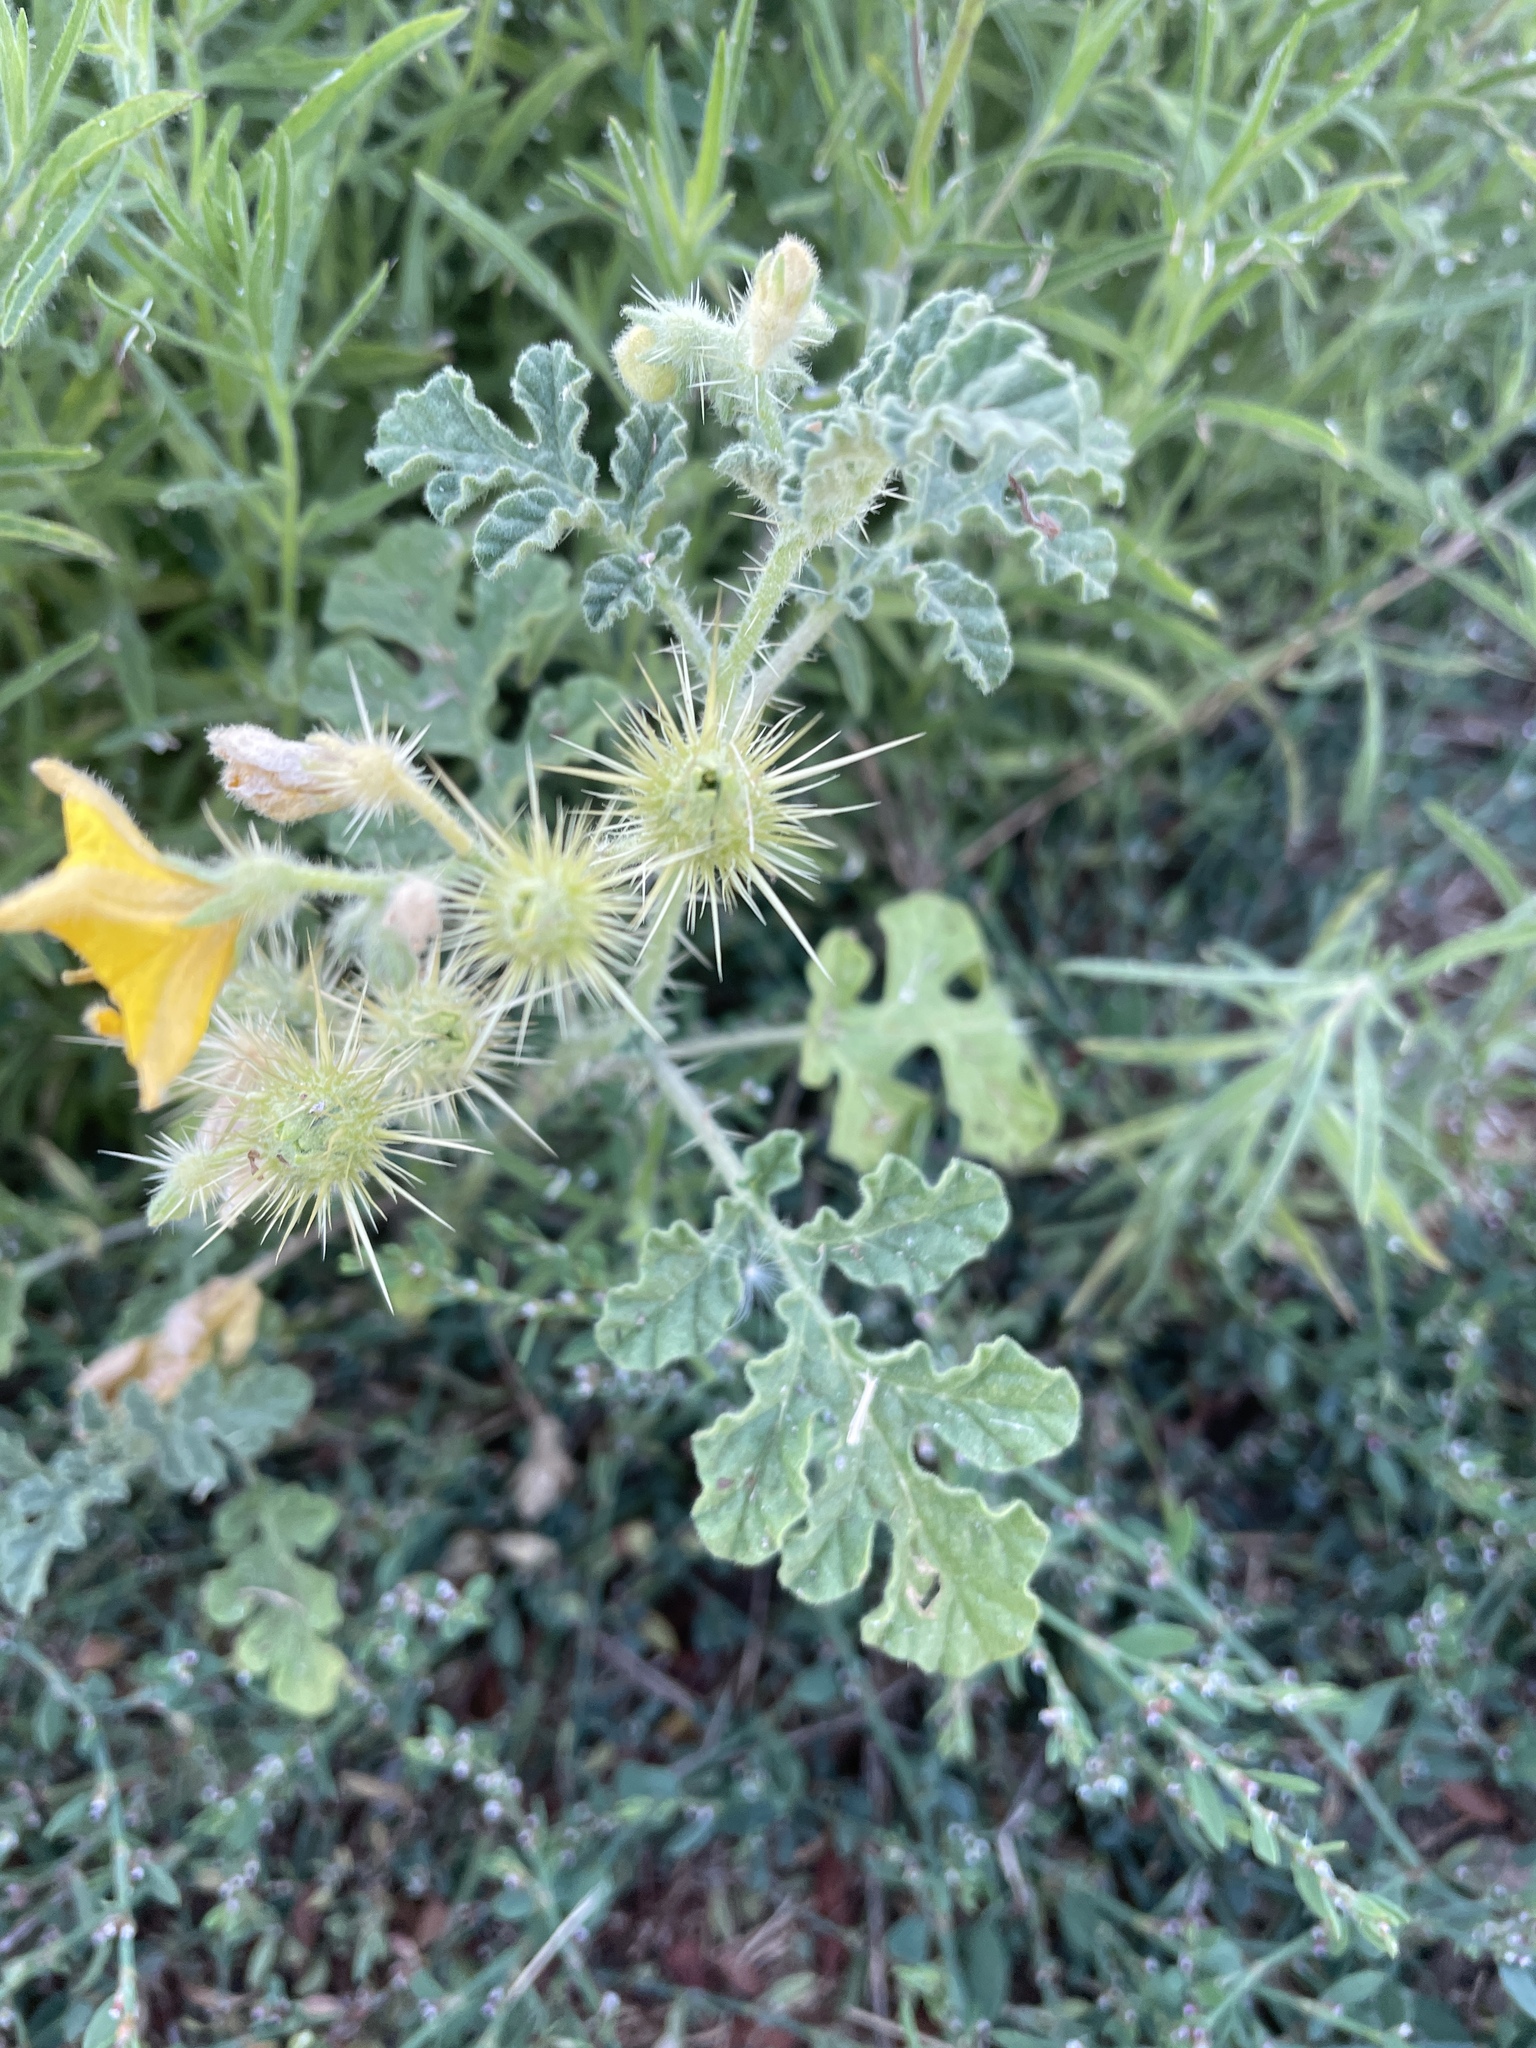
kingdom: Plantae
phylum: Tracheophyta
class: Magnoliopsida
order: Solanales
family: Solanaceae
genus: Solanum
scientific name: Solanum angustifolium
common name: Buffalobur nightshade
